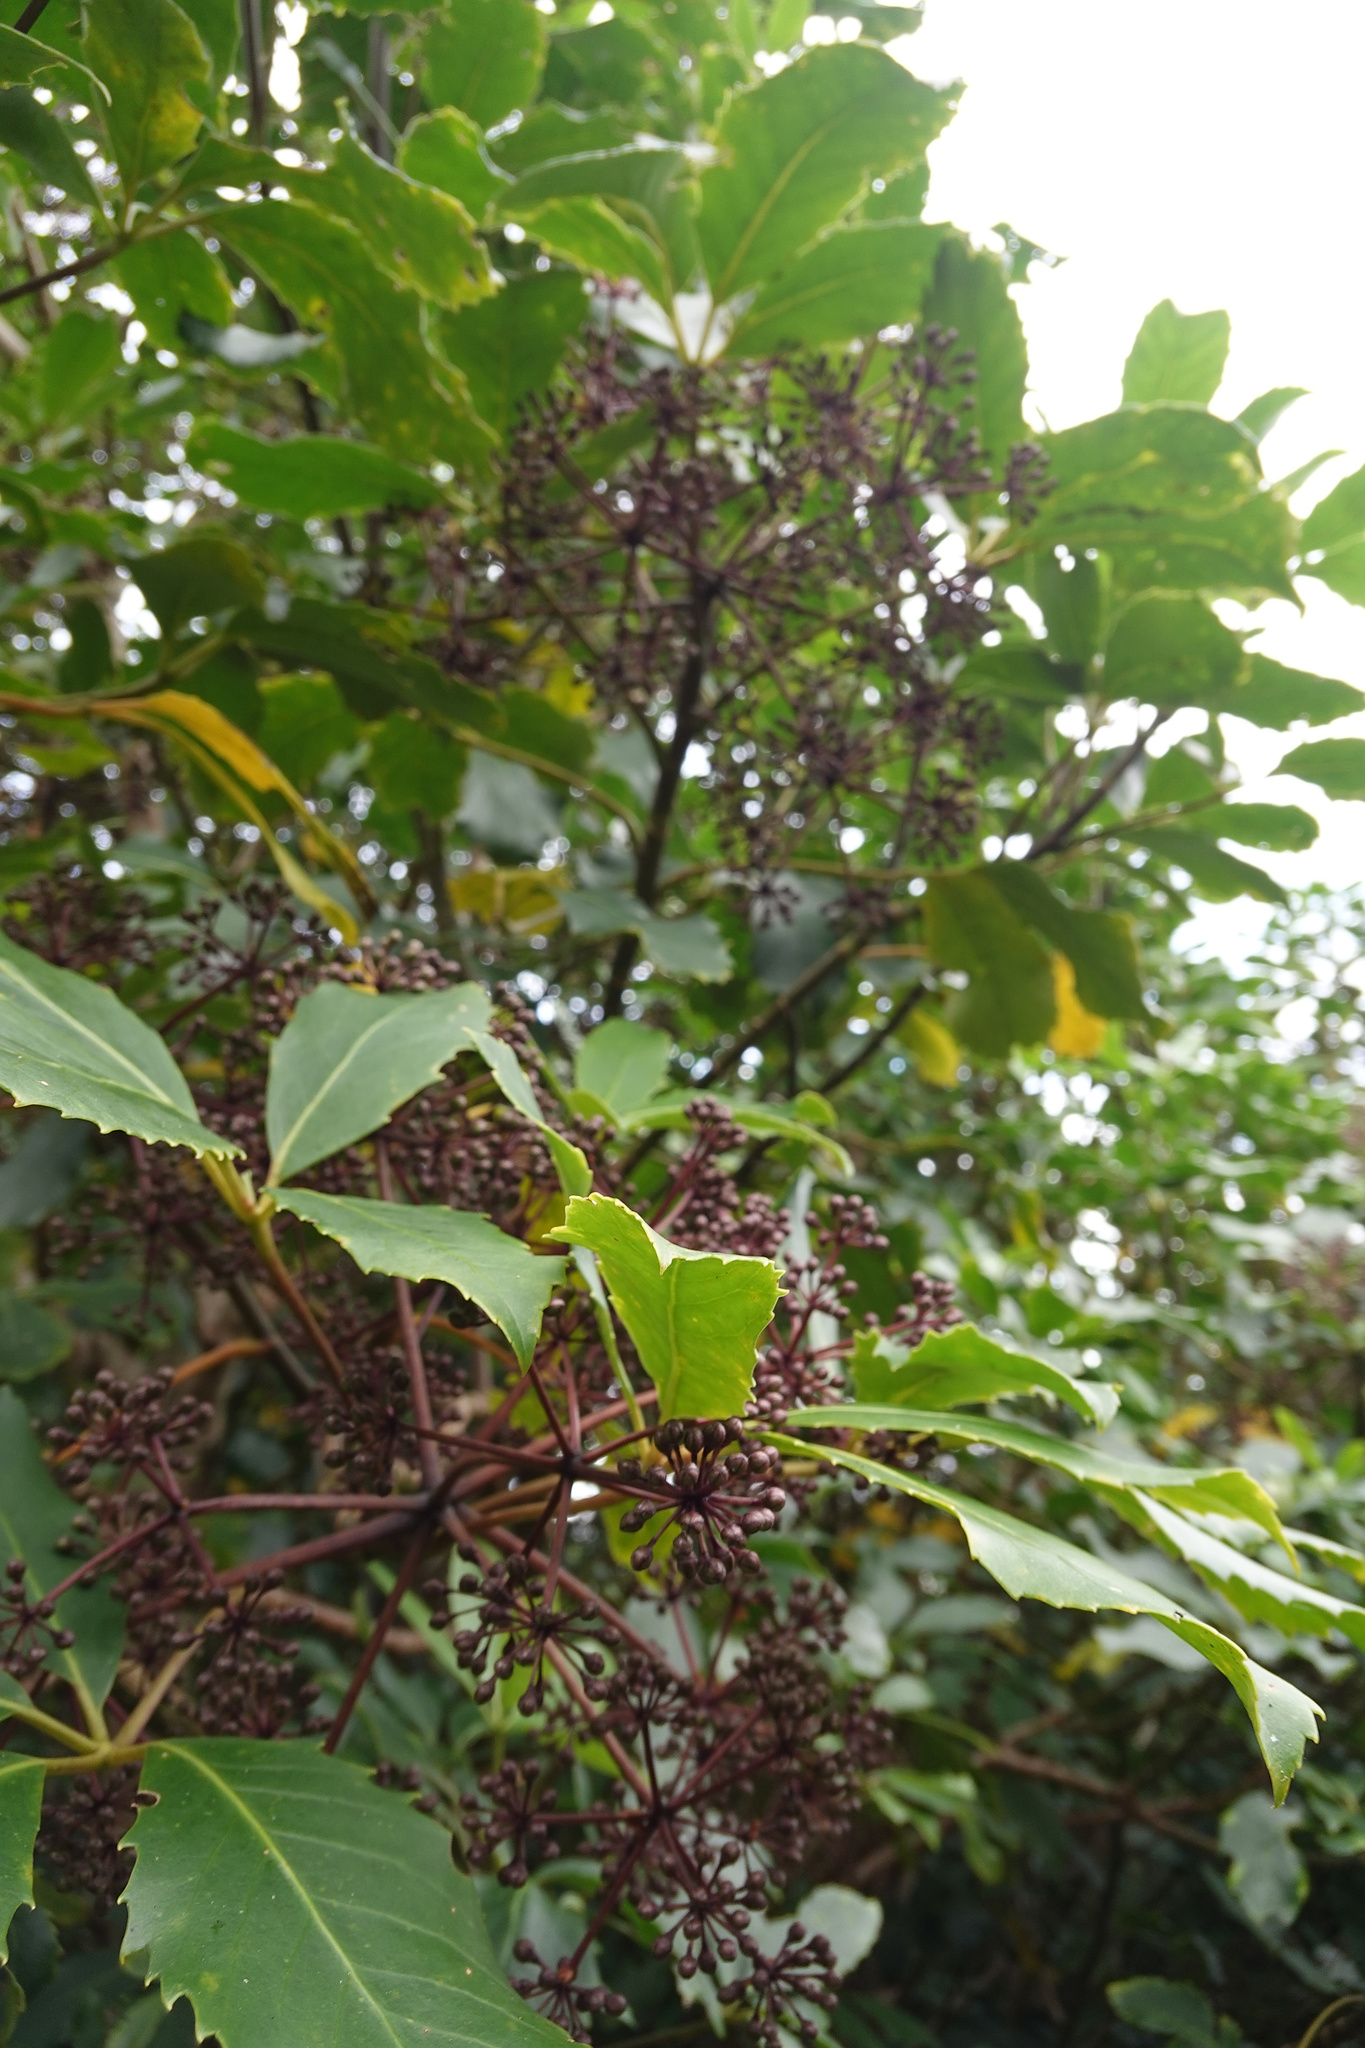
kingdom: Plantae
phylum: Tracheophyta
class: Magnoliopsida
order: Apiales
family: Araliaceae
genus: Neopanax
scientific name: Neopanax arboreus
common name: Five-fingers
